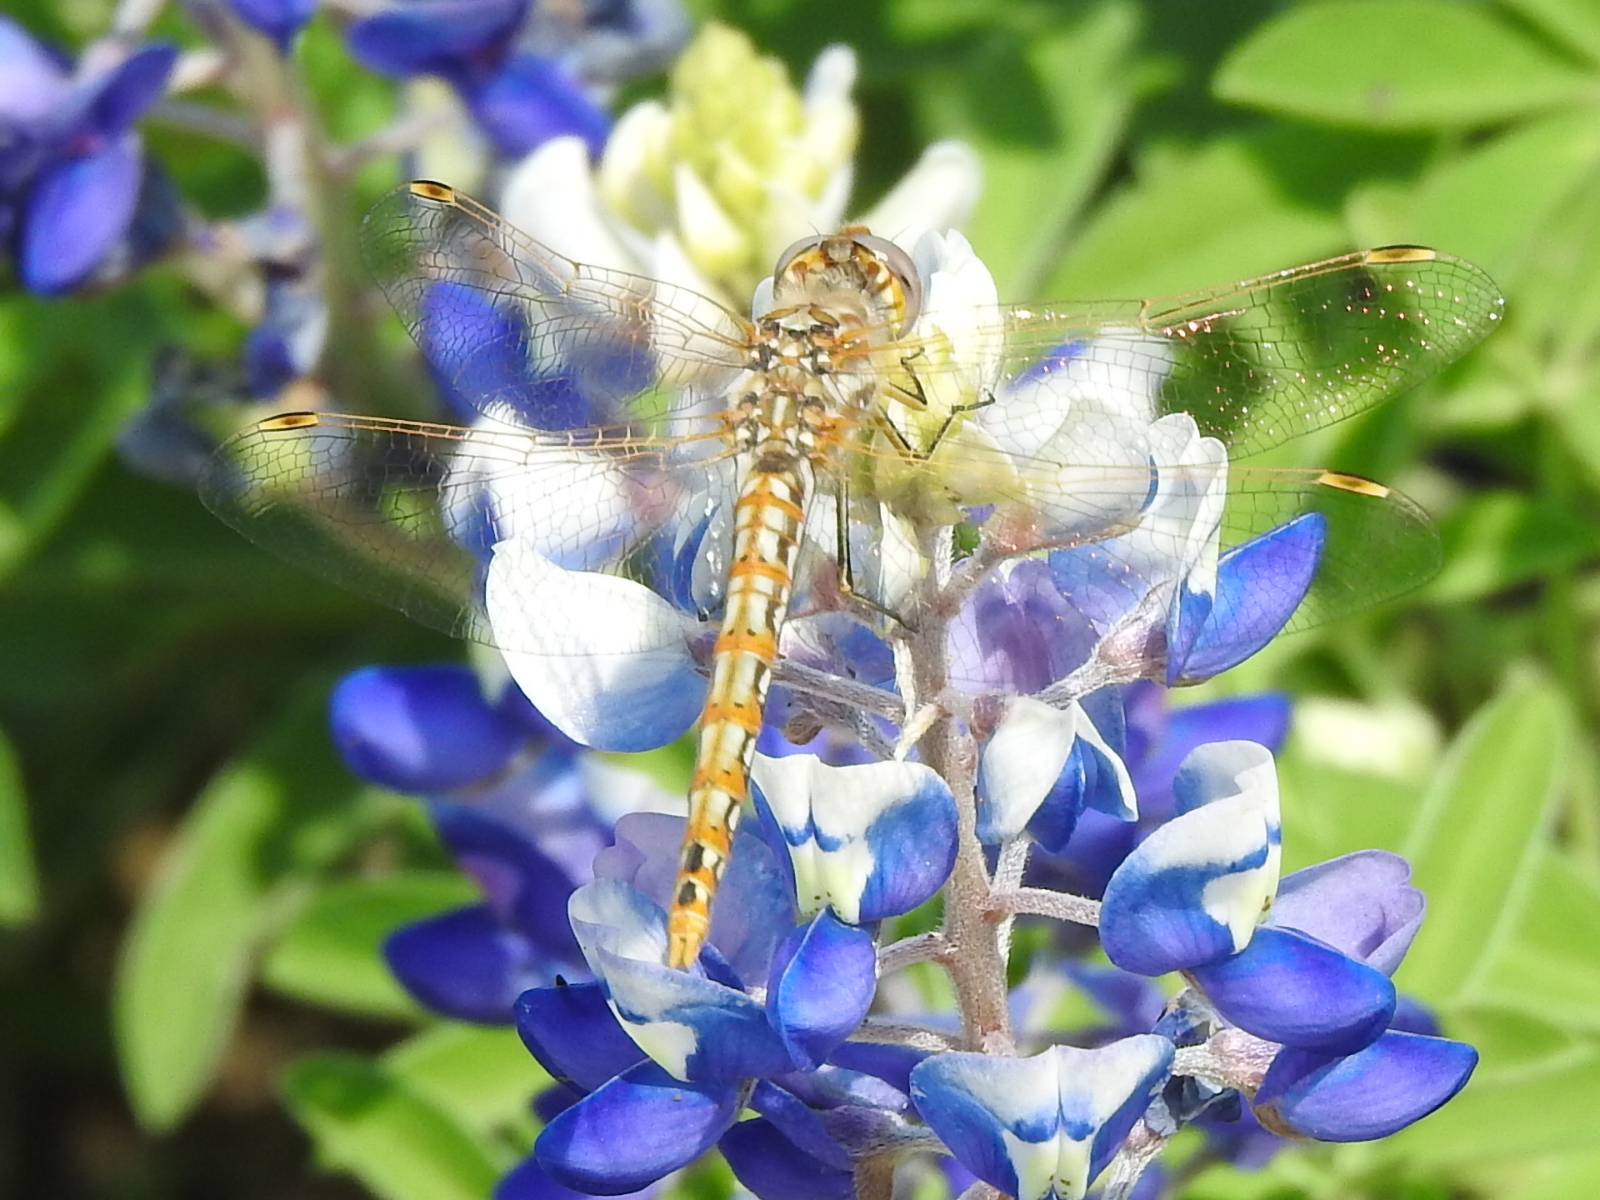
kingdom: Animalia
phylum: Arthropoda
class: Insecta
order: Odonata
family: Libellulidae
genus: Sympetrum
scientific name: Sympetrum corruptum
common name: Variegated meadowhawk
